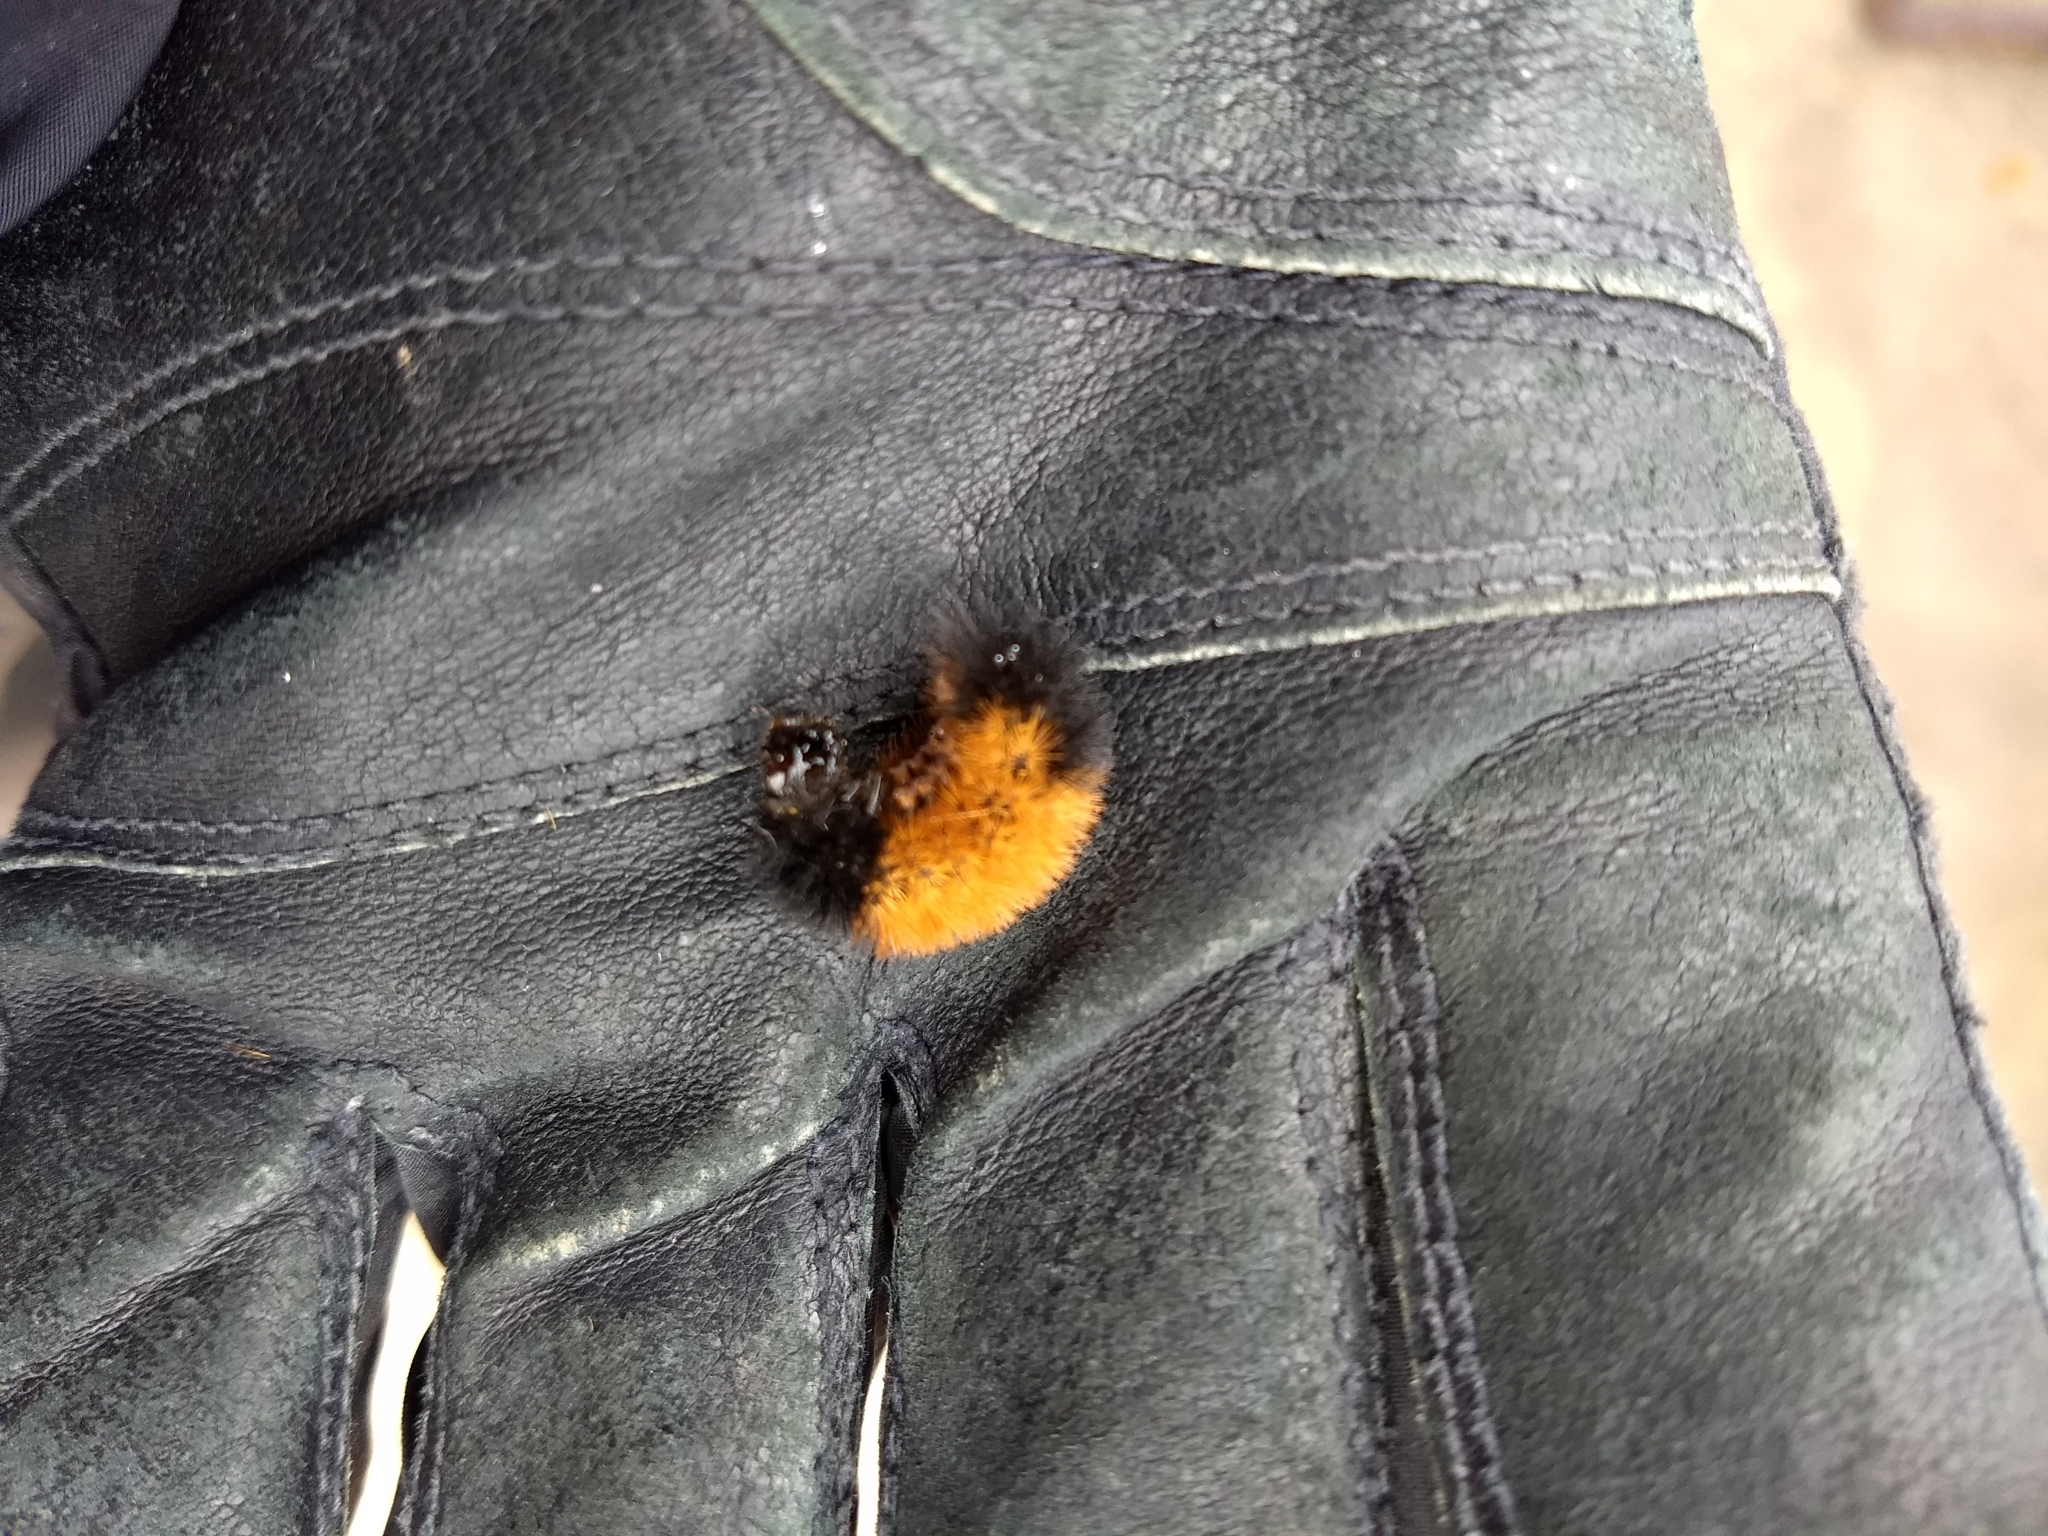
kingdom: Animalia
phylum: Arthropoda
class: Insecta
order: Lepidoptera
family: Erebidae
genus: Pyrrharctia
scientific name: Pyrrharctia isabella
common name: Isabella tiger moth
